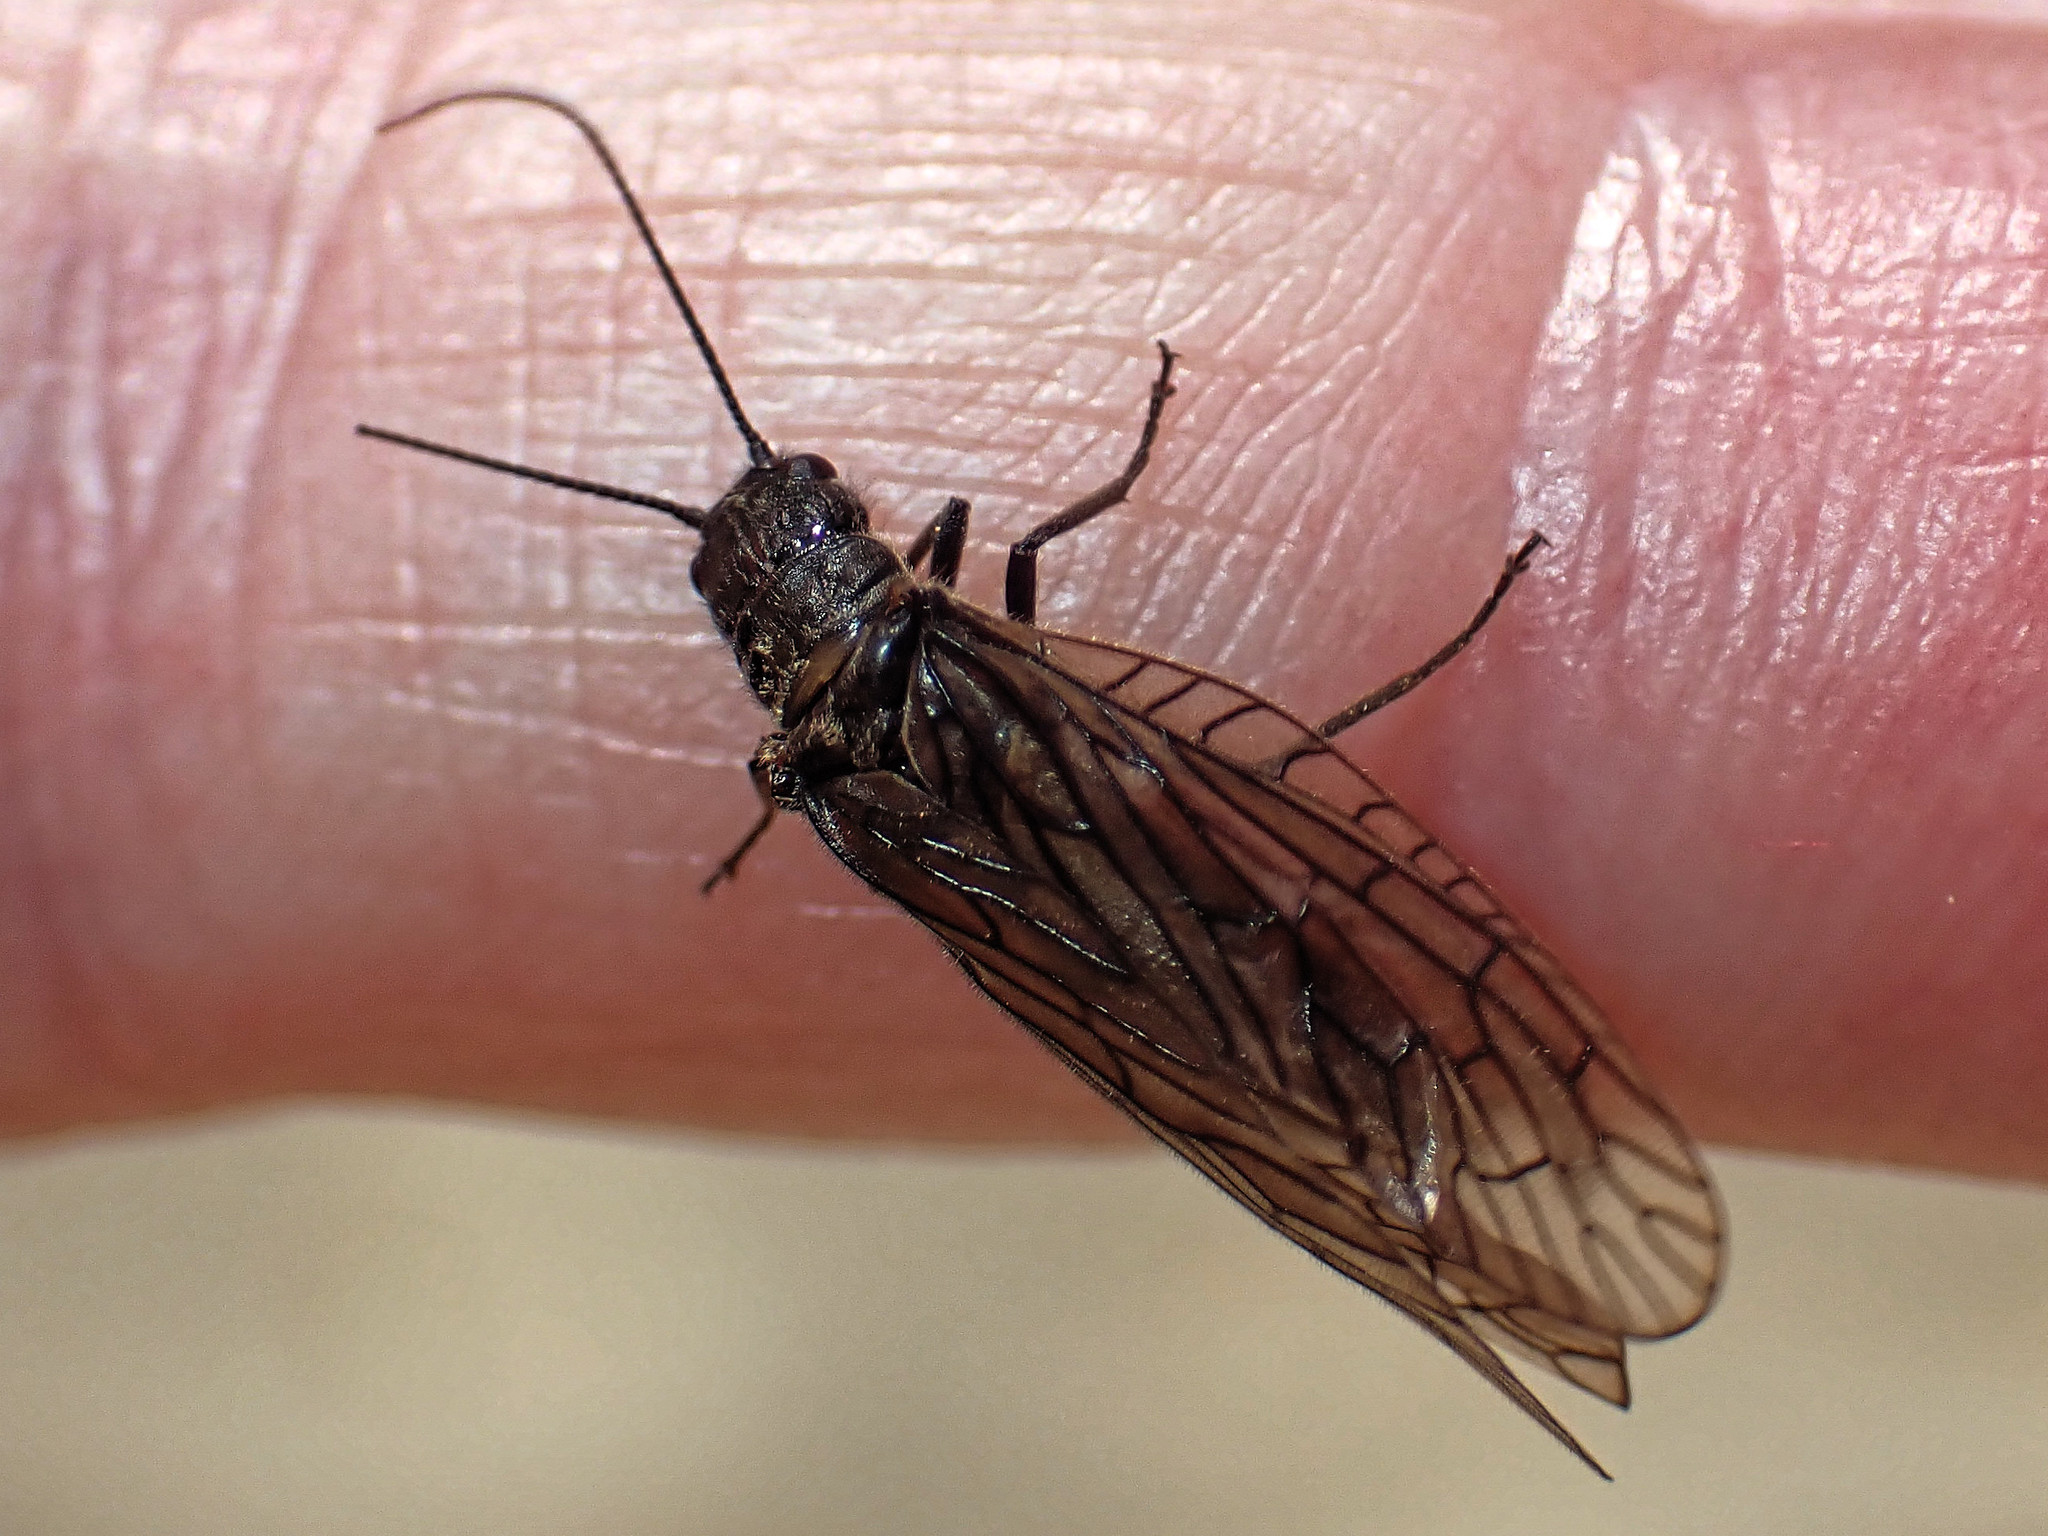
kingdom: Animalia
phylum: Arthropoda
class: Insecta
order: Megaloptera
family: Sialidae
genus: Sialis
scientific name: Sialis
